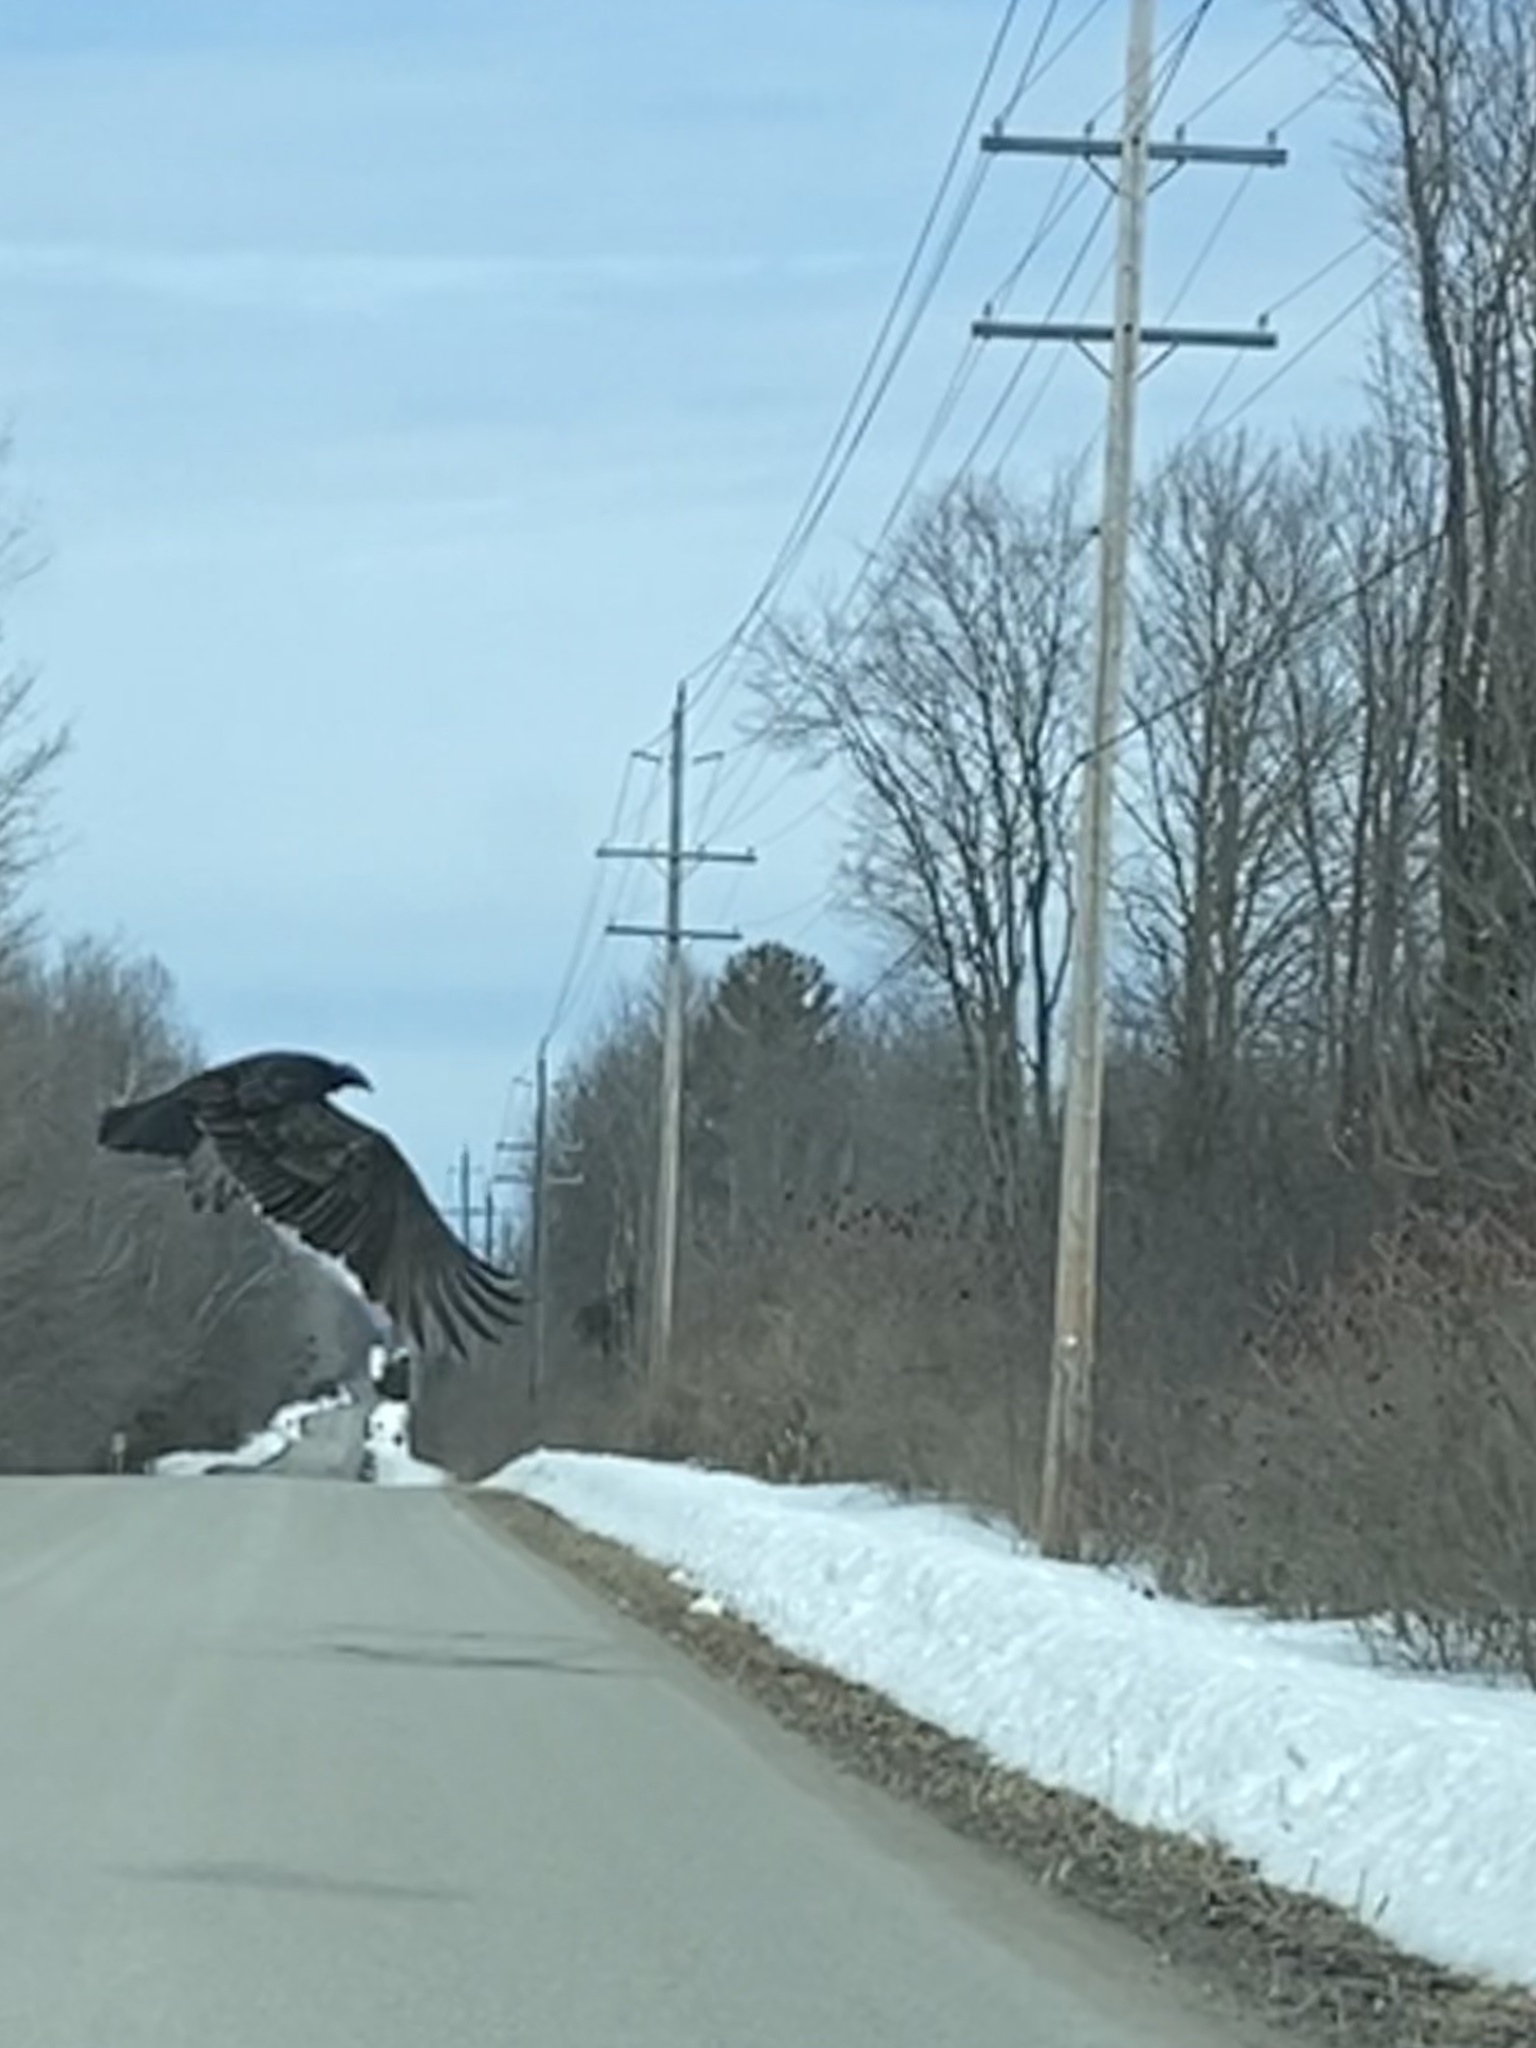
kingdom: Animalia
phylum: Chordata
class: Aves
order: Accipitriformes
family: Cathartidae
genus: Cathartes
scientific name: Cathartes aura
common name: Turkey vulture
